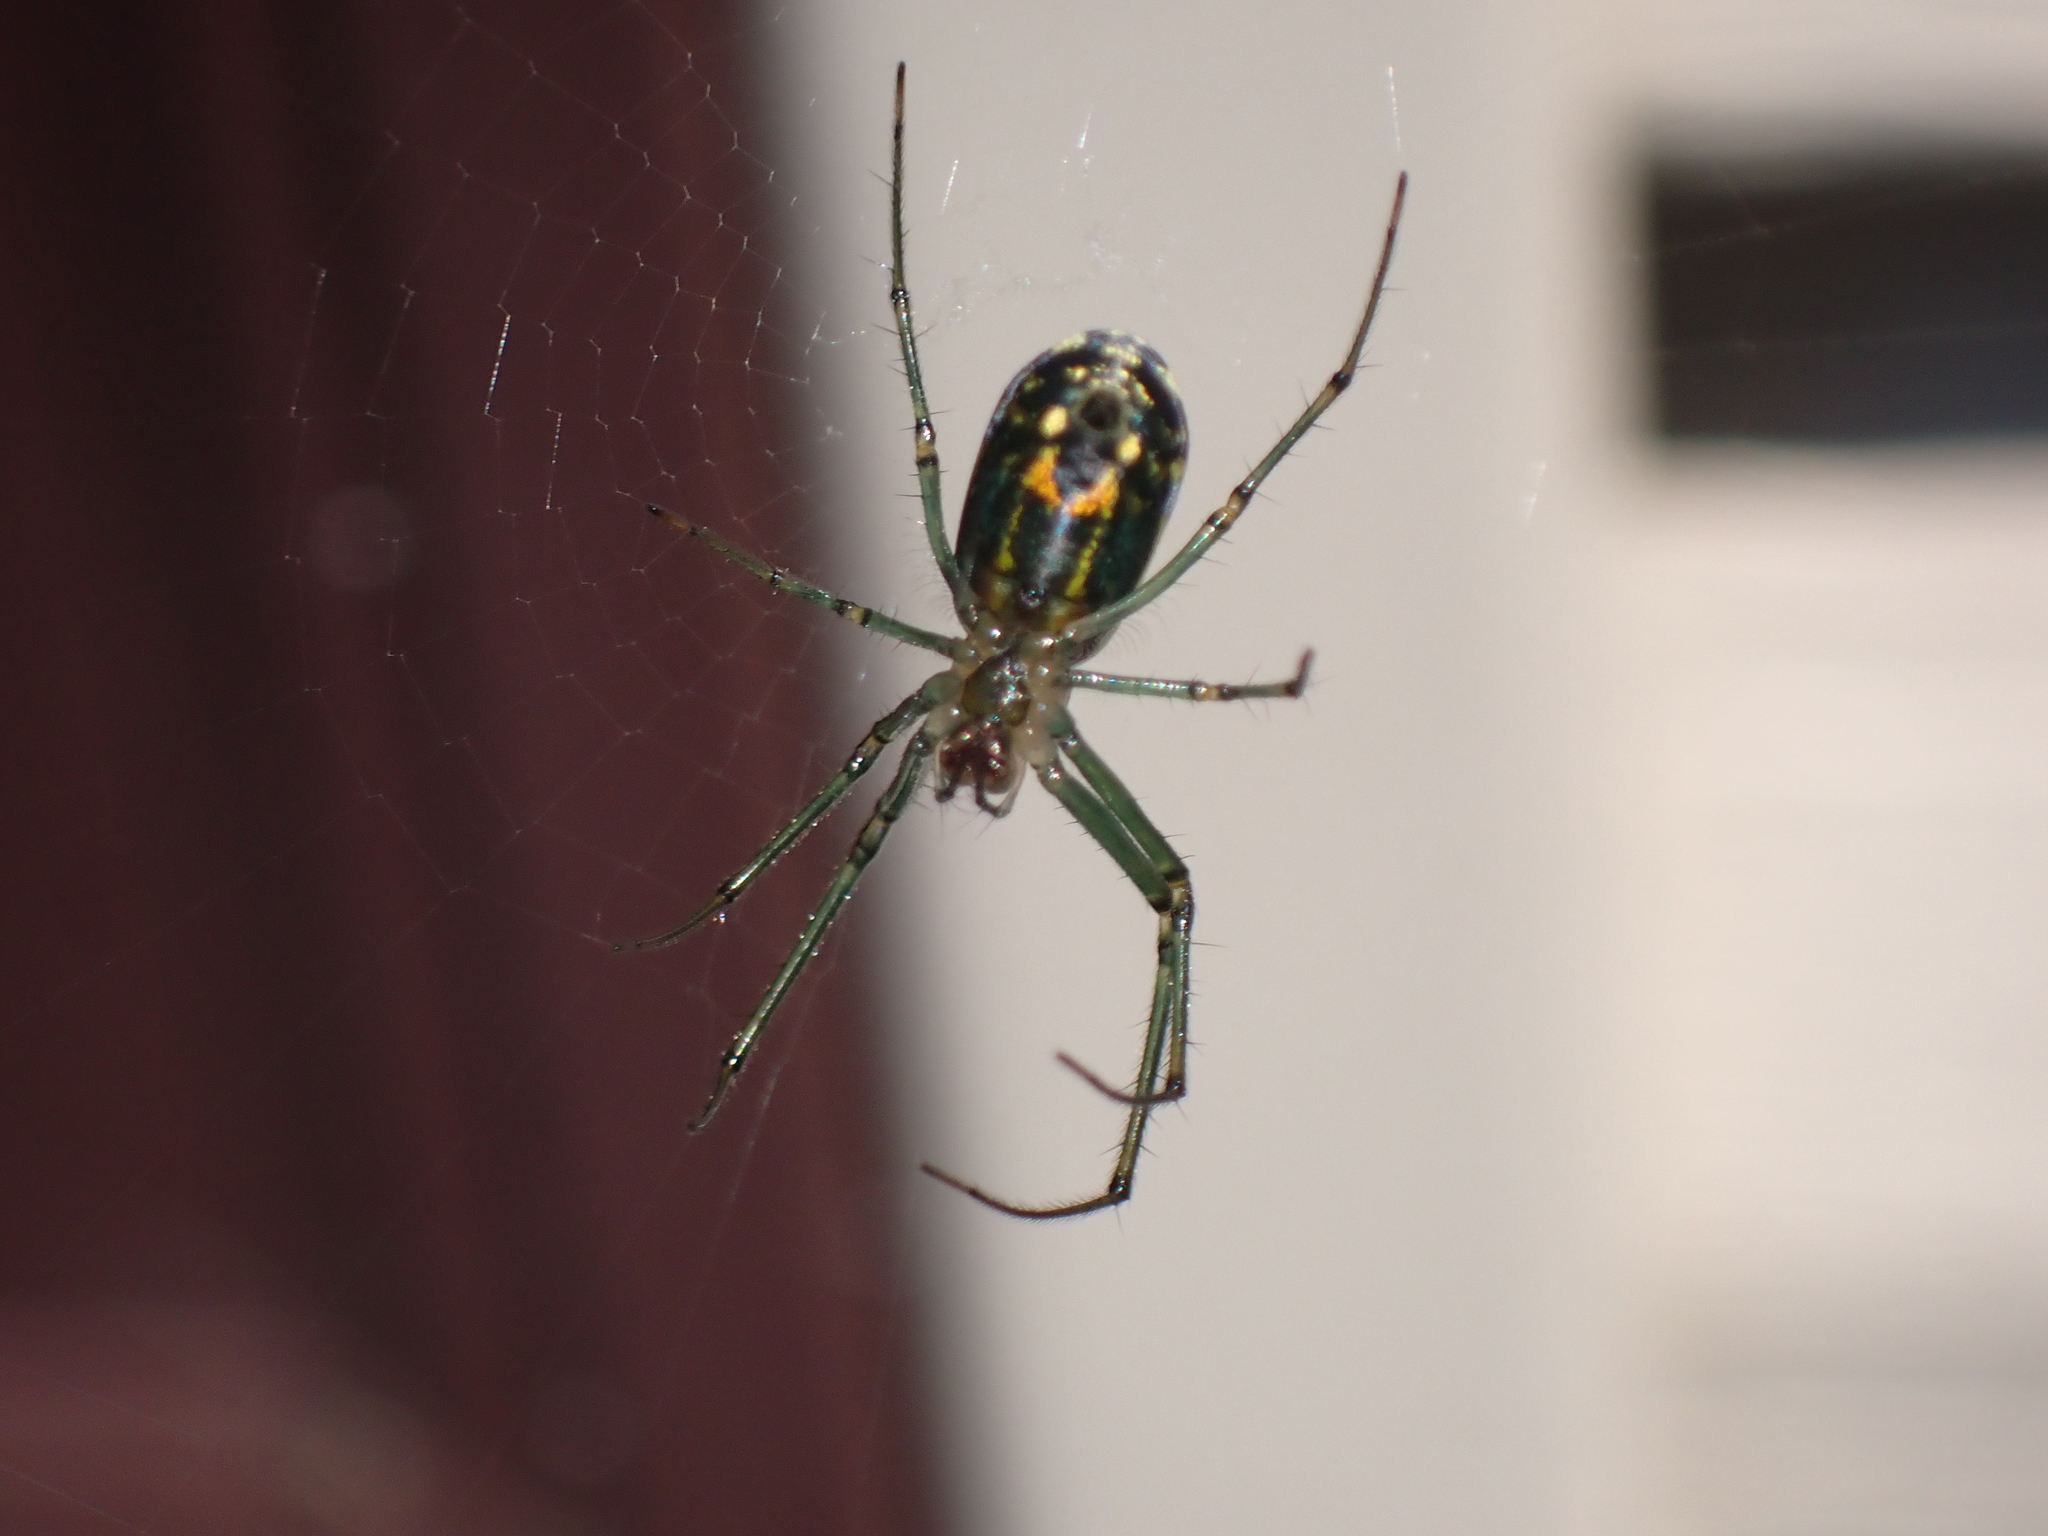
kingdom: Animalia
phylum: Arthropoda
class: Arachnida
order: Araneae
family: Tetragnathidae
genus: Leucauge
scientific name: Leucauge venusta
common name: Longjawed orb weavers
